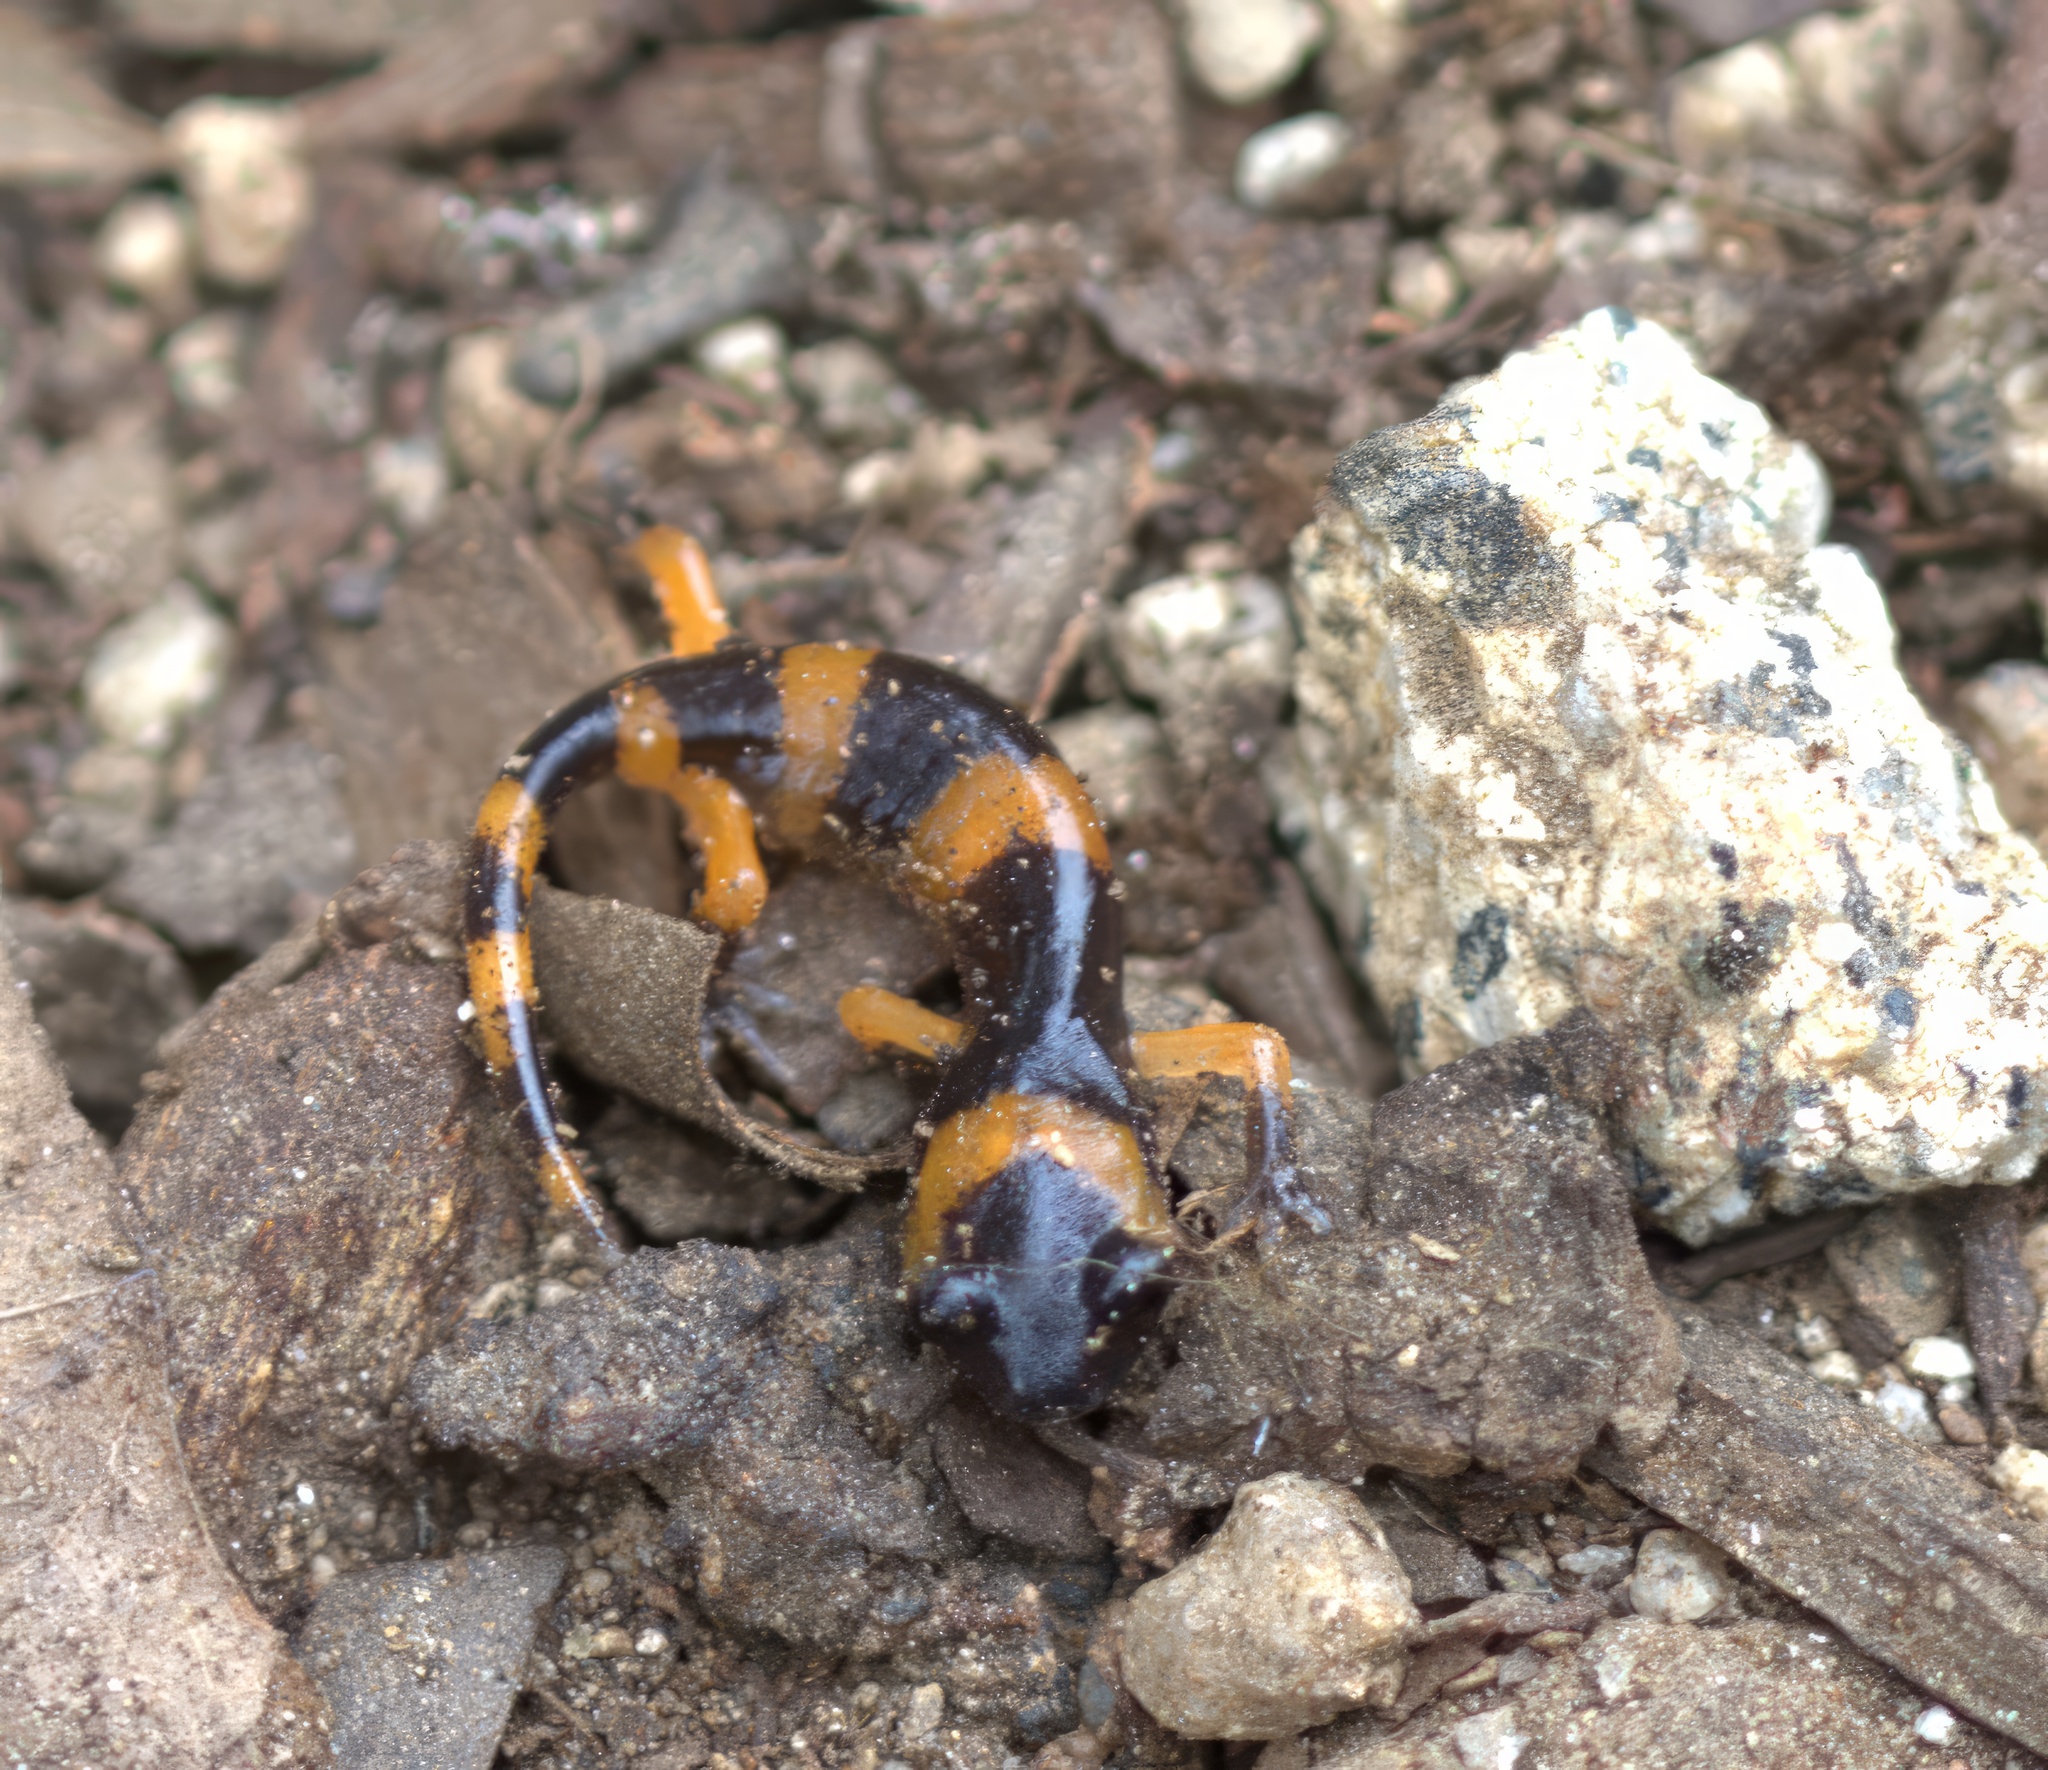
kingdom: Animalia
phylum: Chordata
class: Amphibia
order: Caudata
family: Plethodontidae
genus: Ensatina
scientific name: Ensatina eschscholtzii
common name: Ensatina
